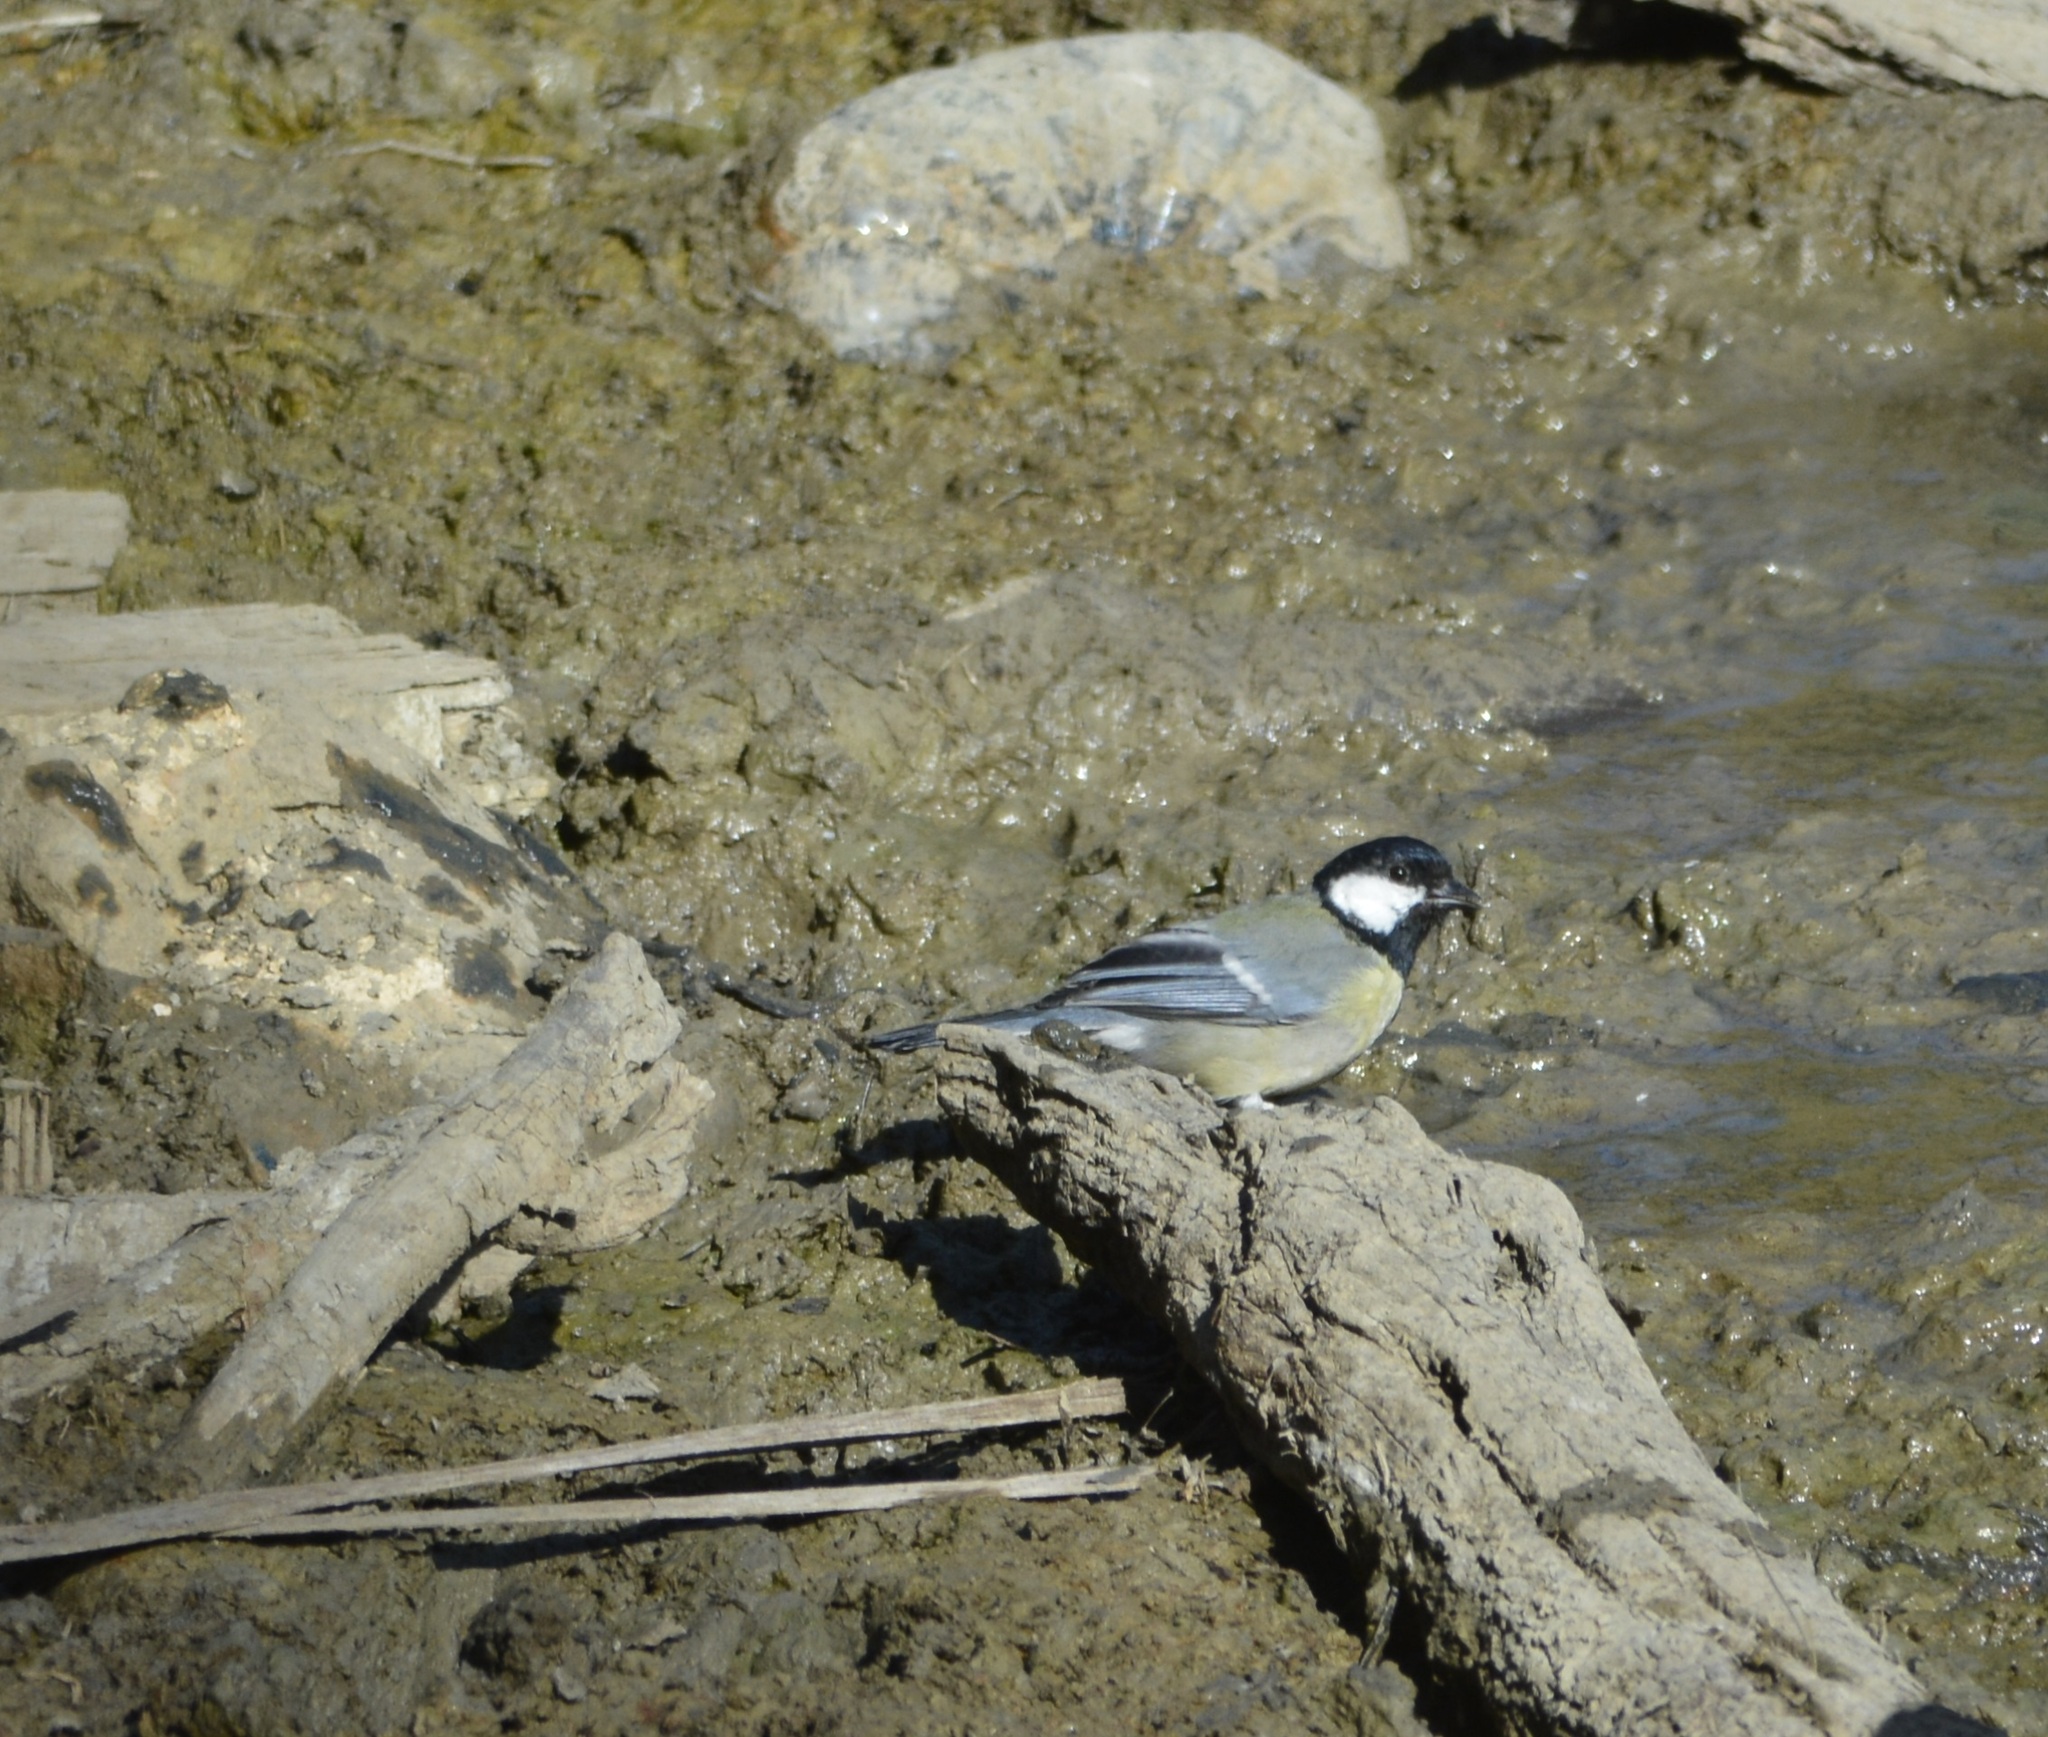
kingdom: Animalia
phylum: Chordata
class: Aves
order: Passeriformes
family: Paridae
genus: Parus
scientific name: Parus major
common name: Great tit
